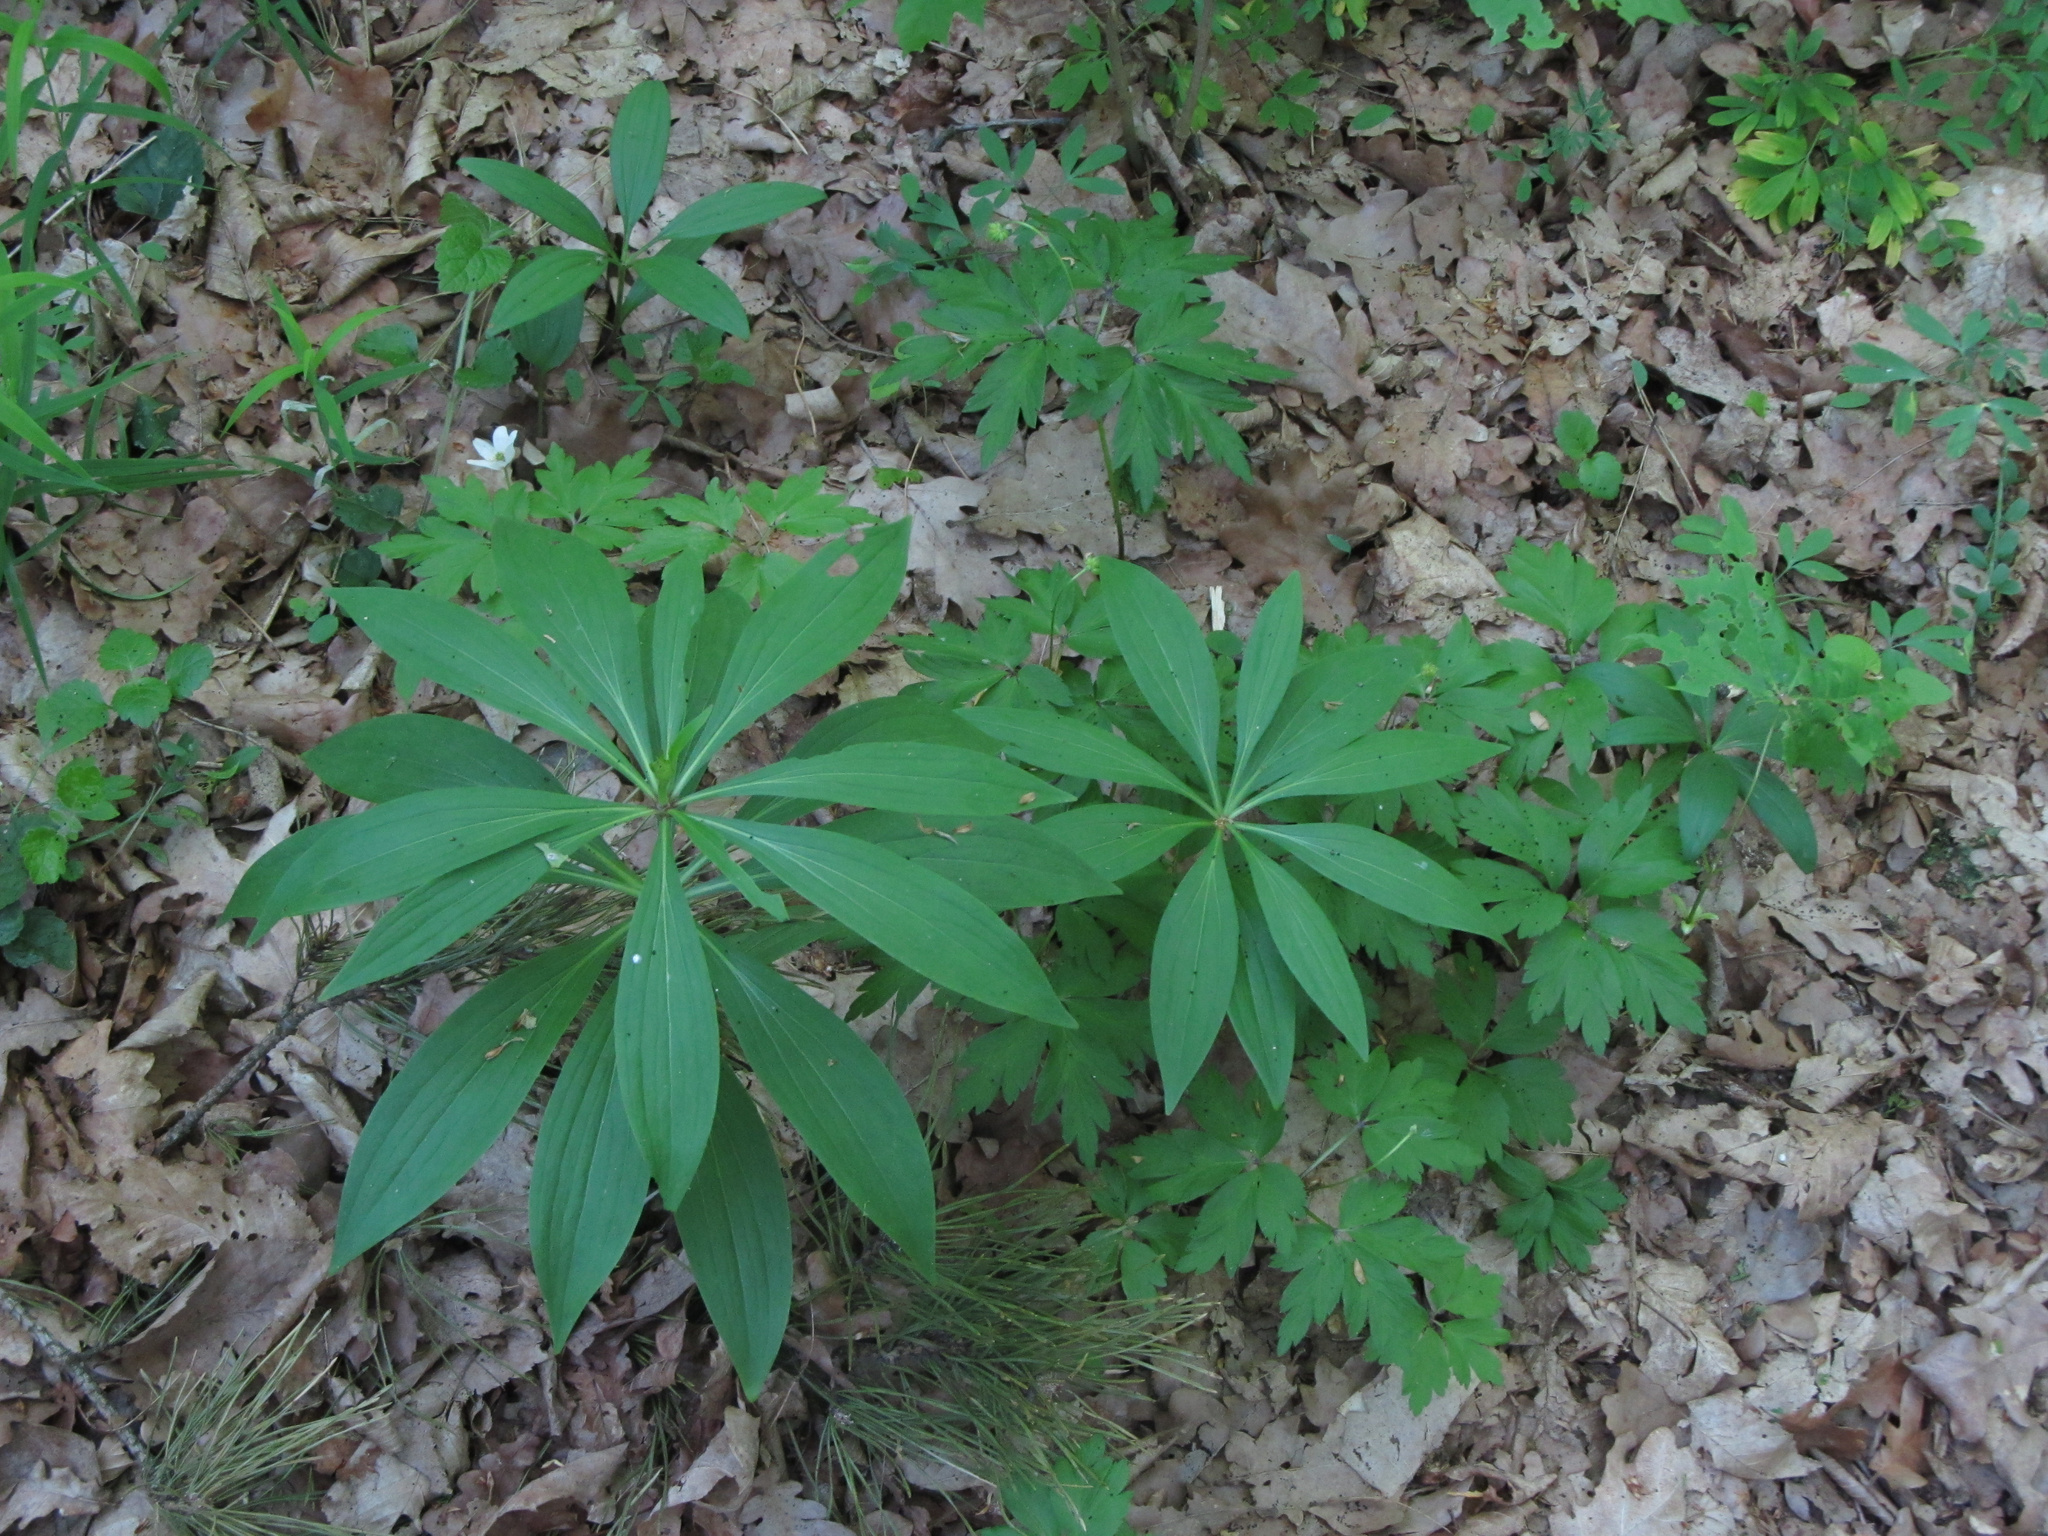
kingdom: Plantae
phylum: Tracheophyta
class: Liliopsida
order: Liliales
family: Liliaceae
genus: Lilium
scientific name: Lilium martagon
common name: Martagon lily
